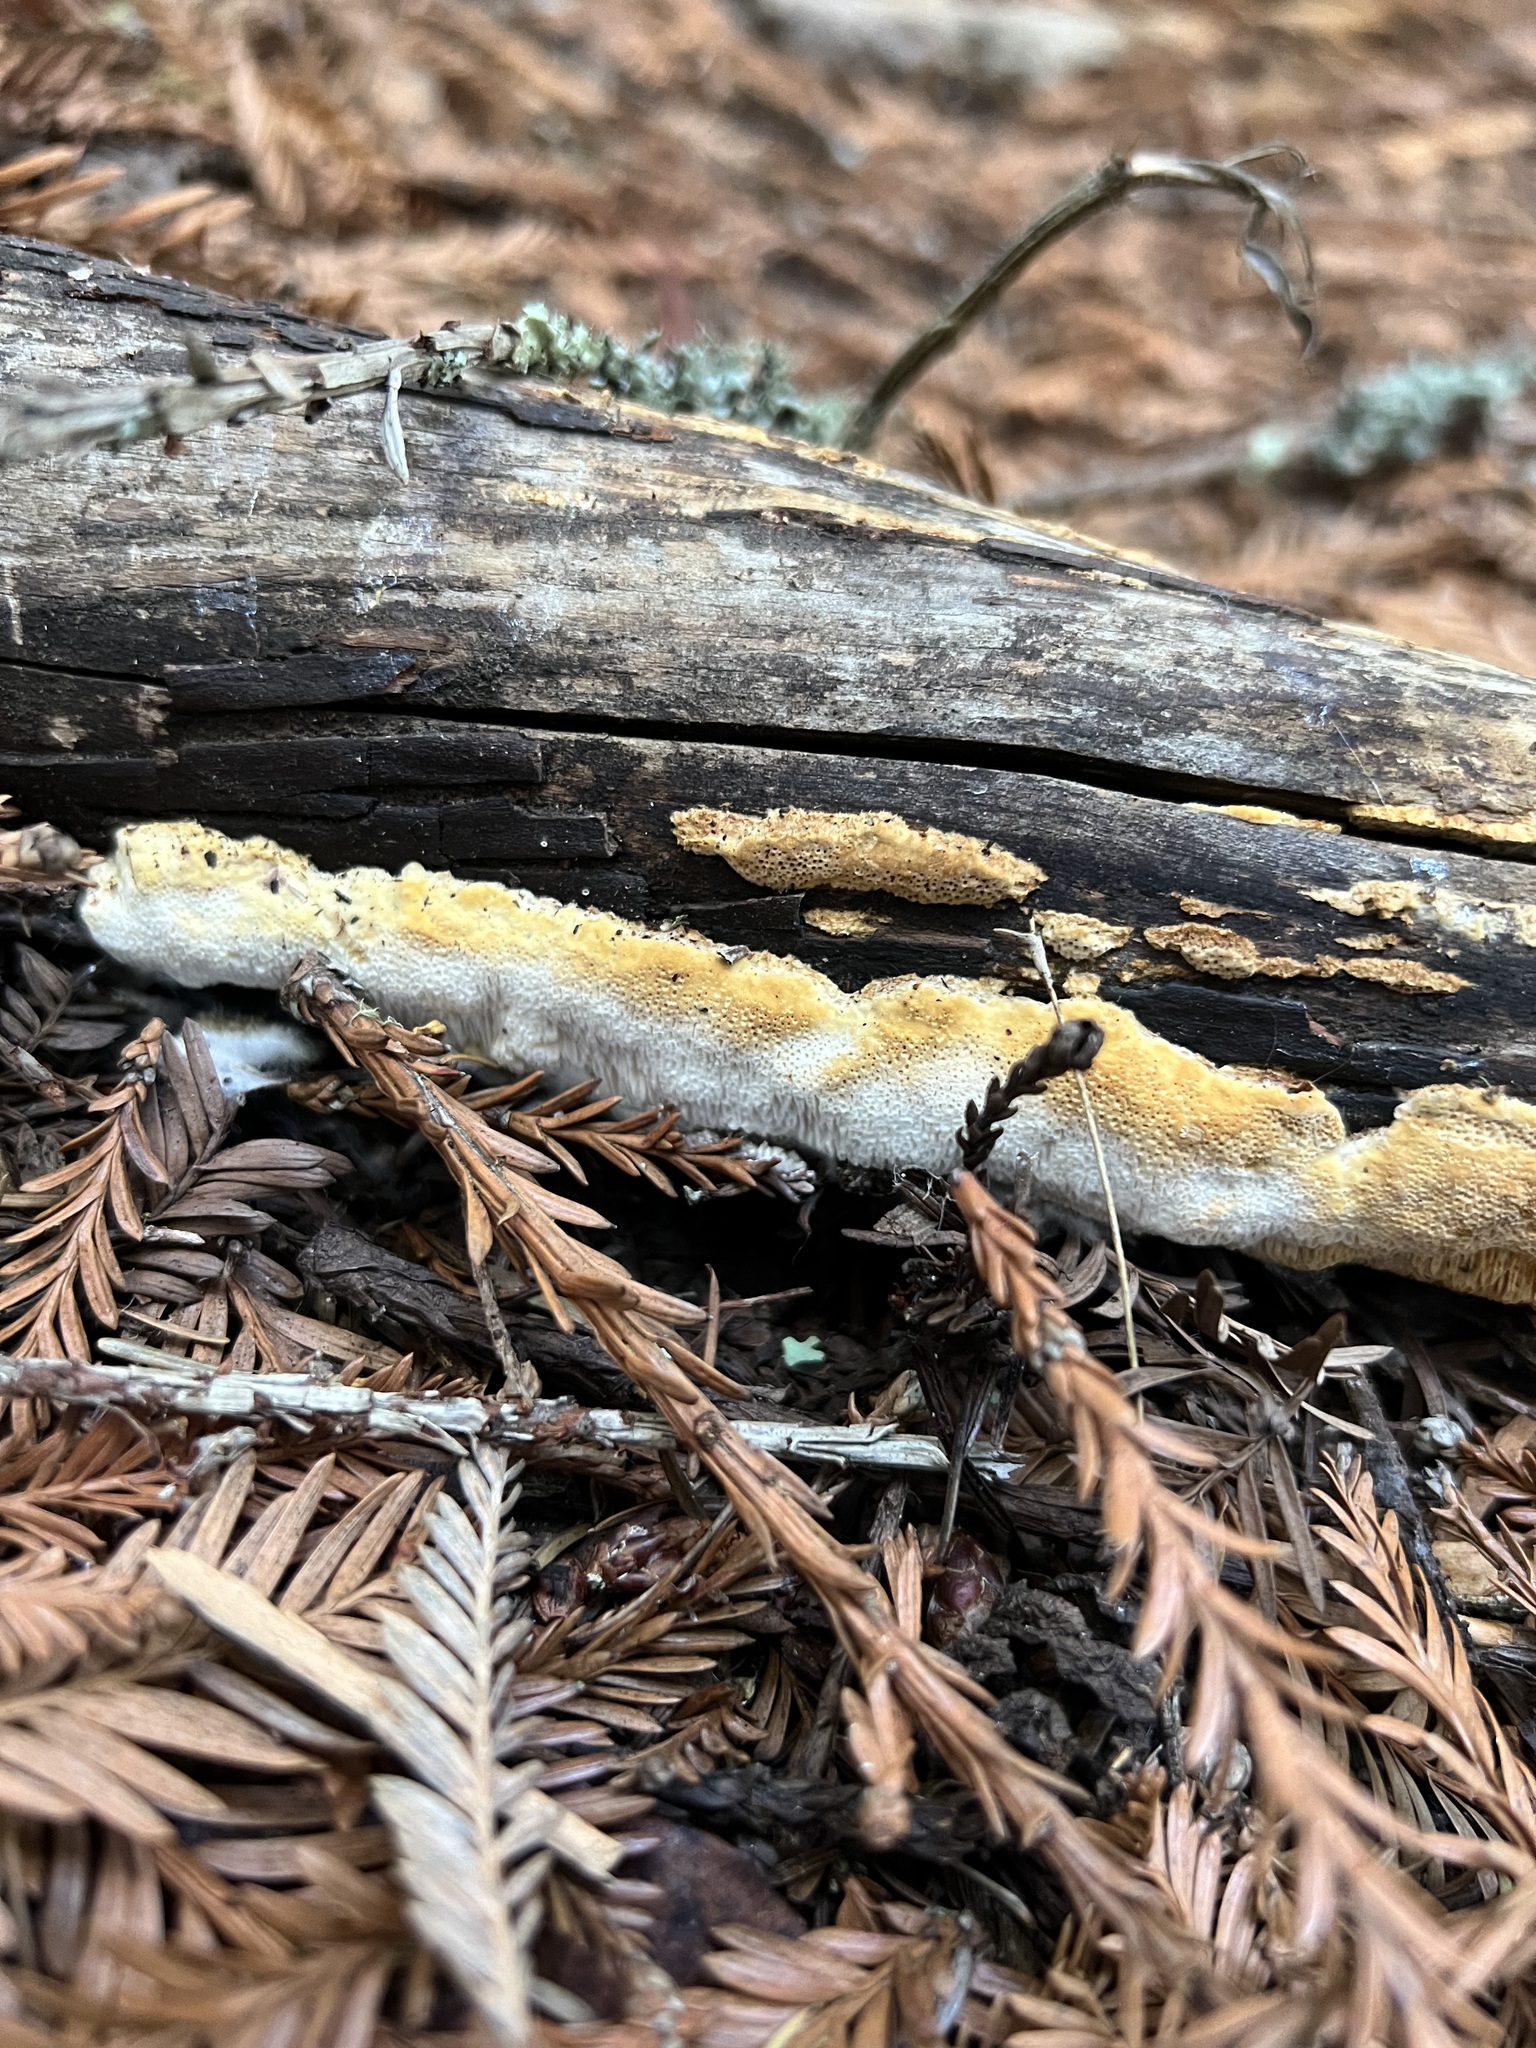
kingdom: Fungi
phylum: Basidiomycota
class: Agaricomycetes
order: Polyporales
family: Fomitopsidaceae
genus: Fomitopsis
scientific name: Fomitopsis
